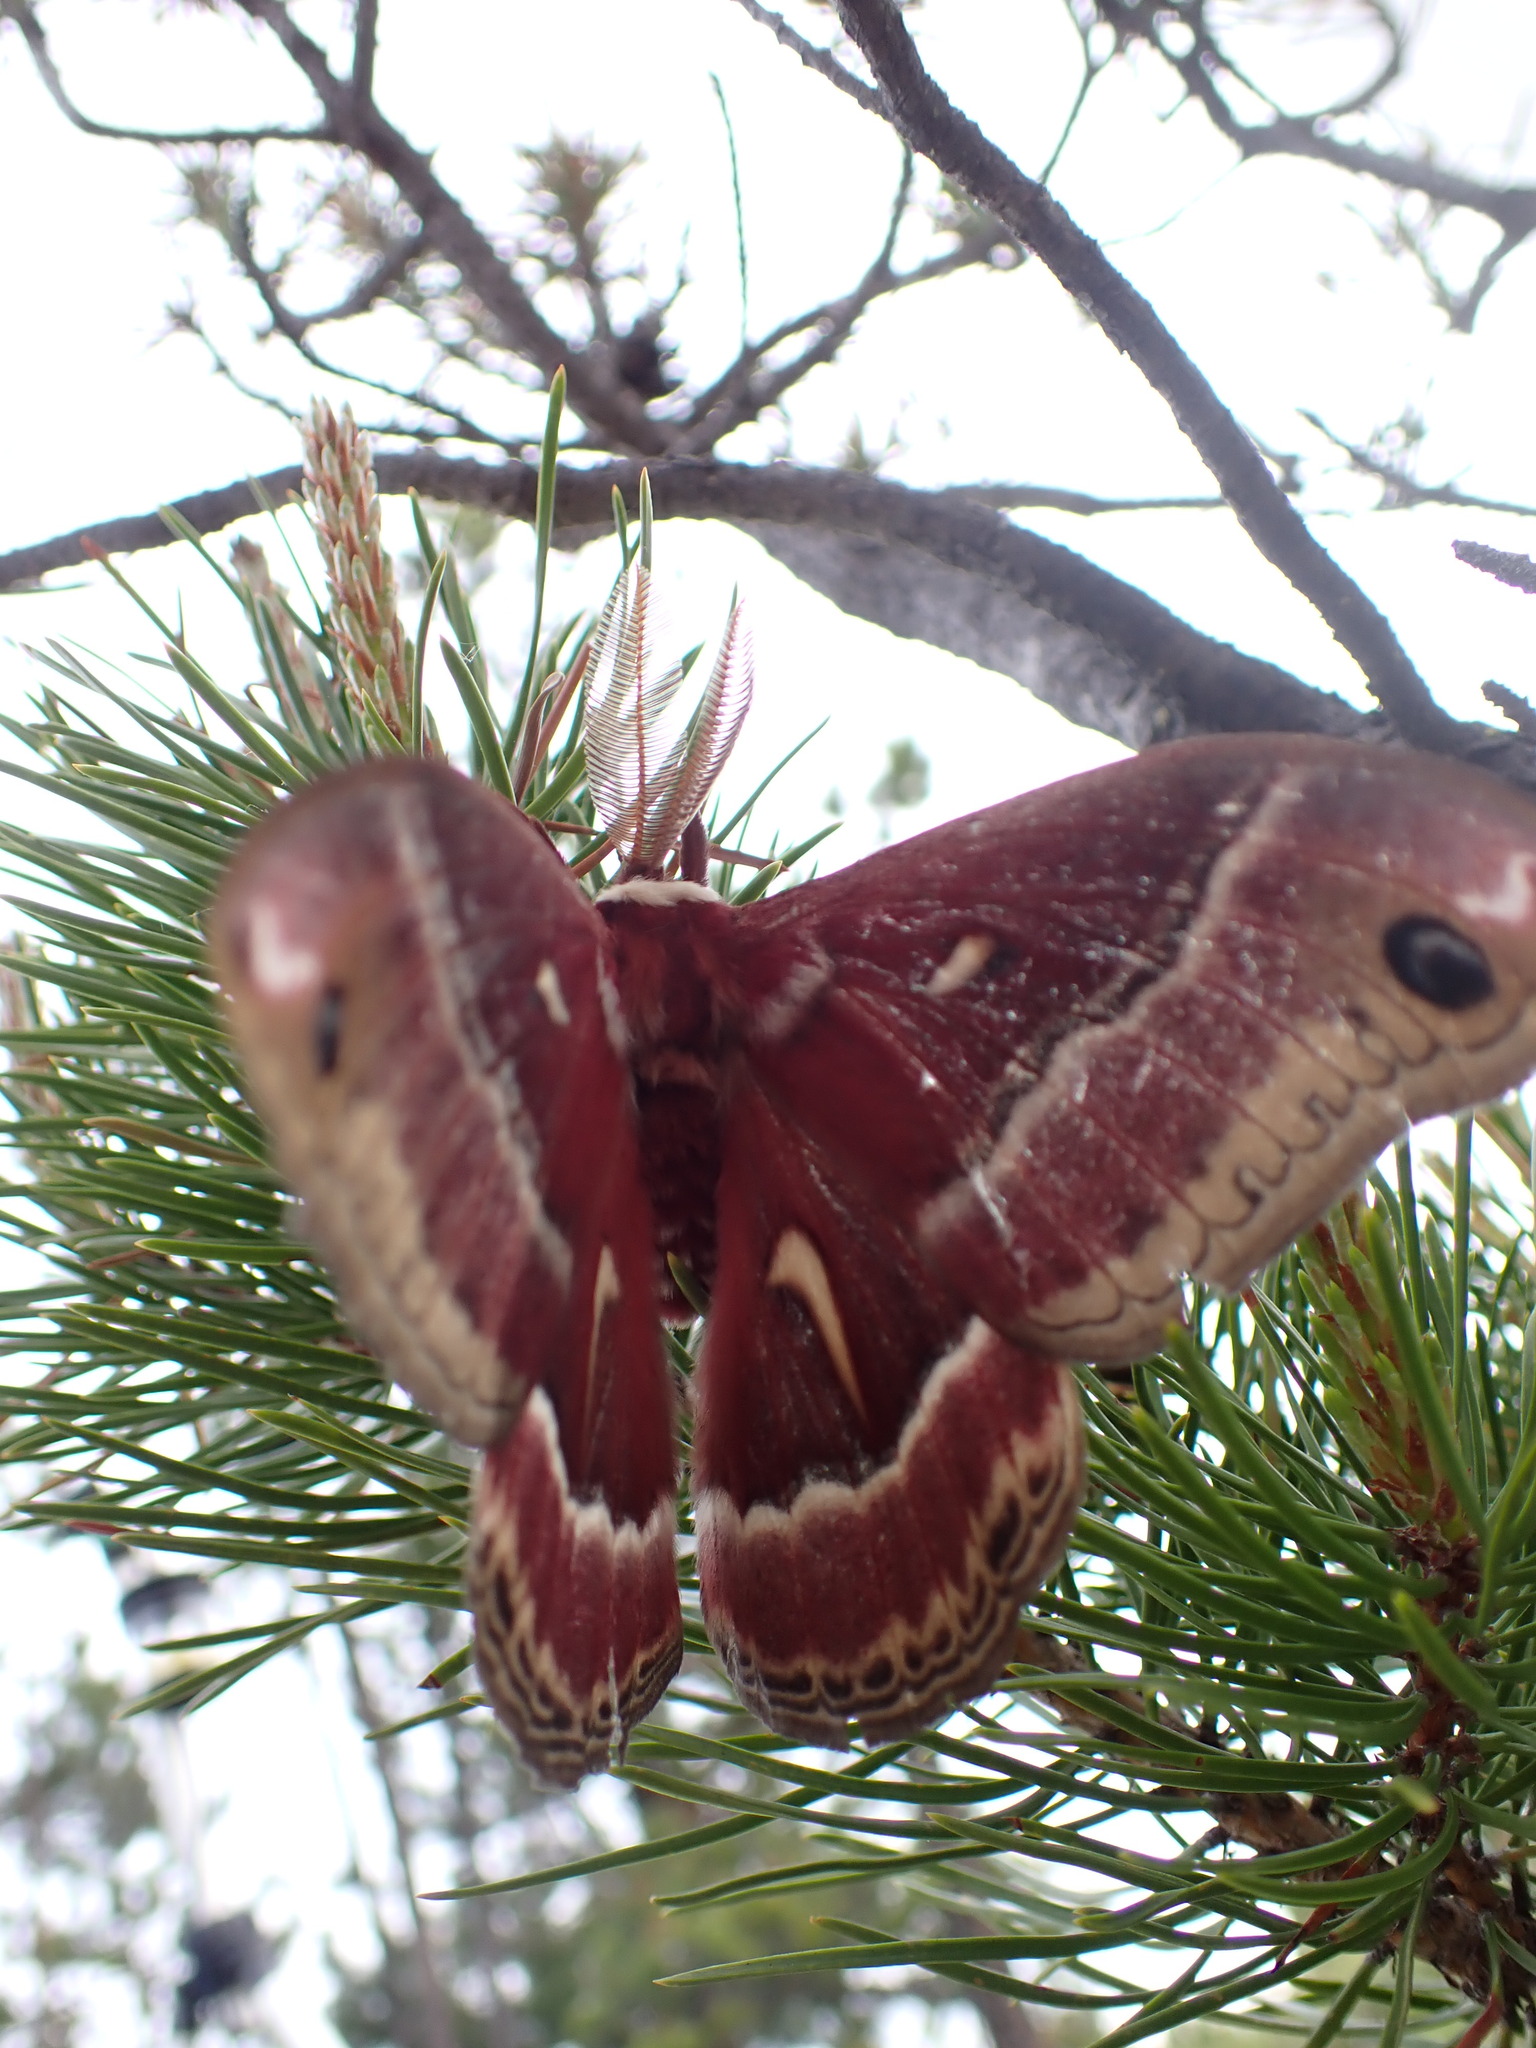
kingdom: Animalia
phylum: Arthropoda
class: Insecta
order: Lepidoptera
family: Saturniidae
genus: Hyalophora
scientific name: Hyalophora euryalus
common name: Ceanothus silkmoth
